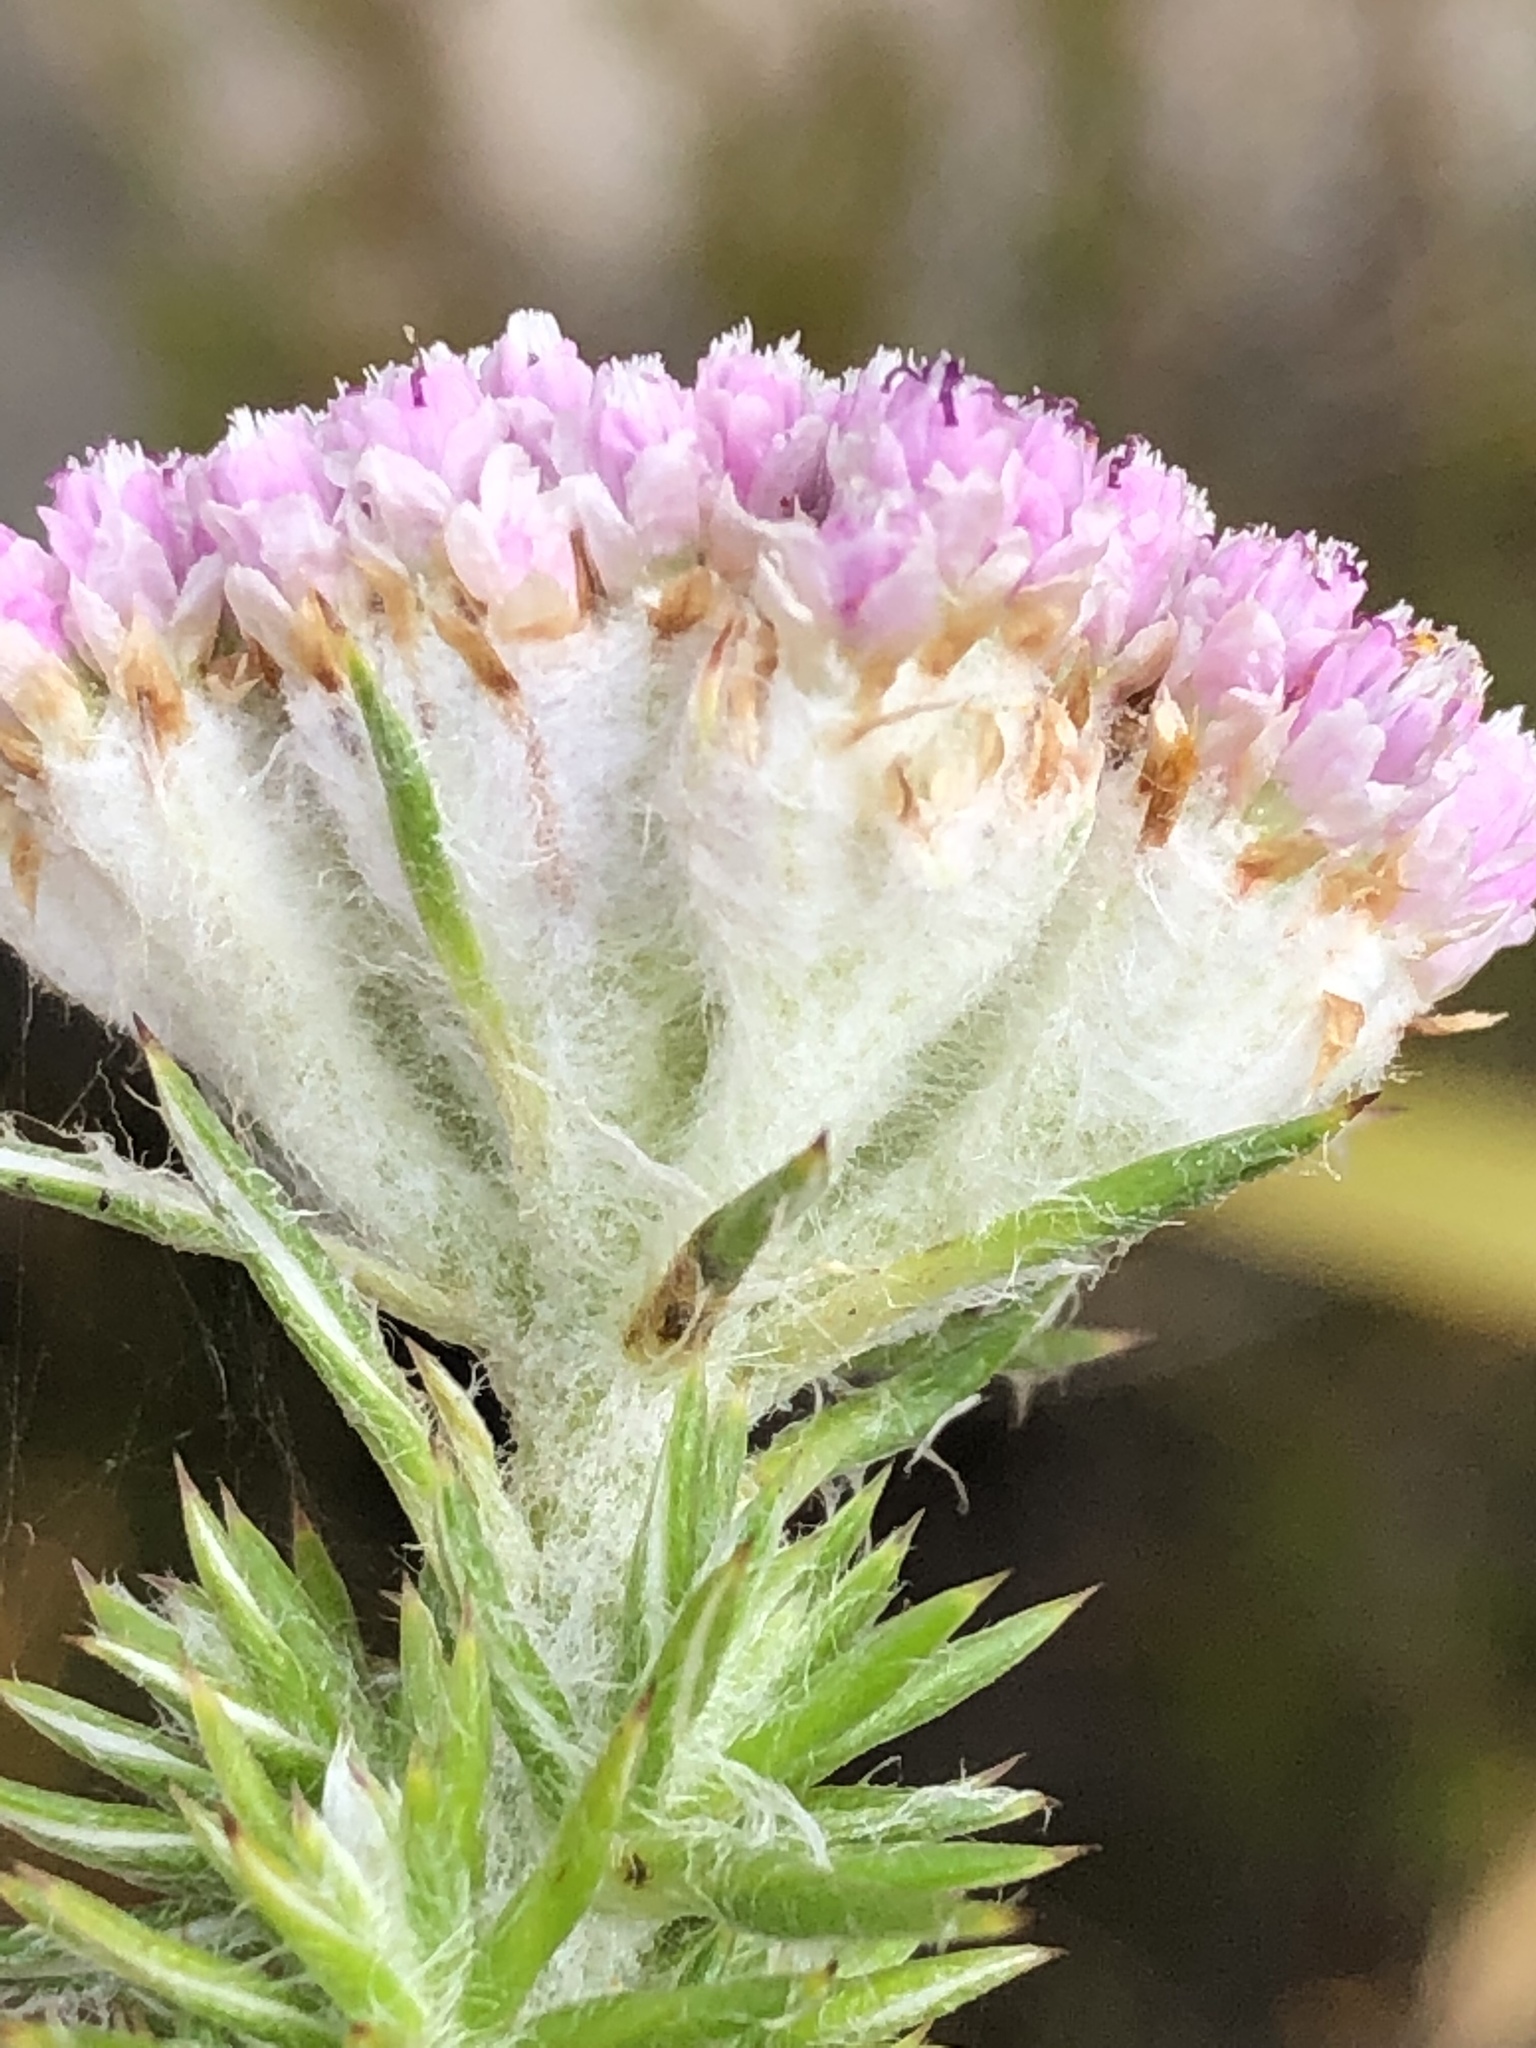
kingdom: Plantae
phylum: Tracheophyta
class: Magnoliopsida
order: Asterales
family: Asteraceae
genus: Metalasia
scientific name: Metalasia muraltiifolia
